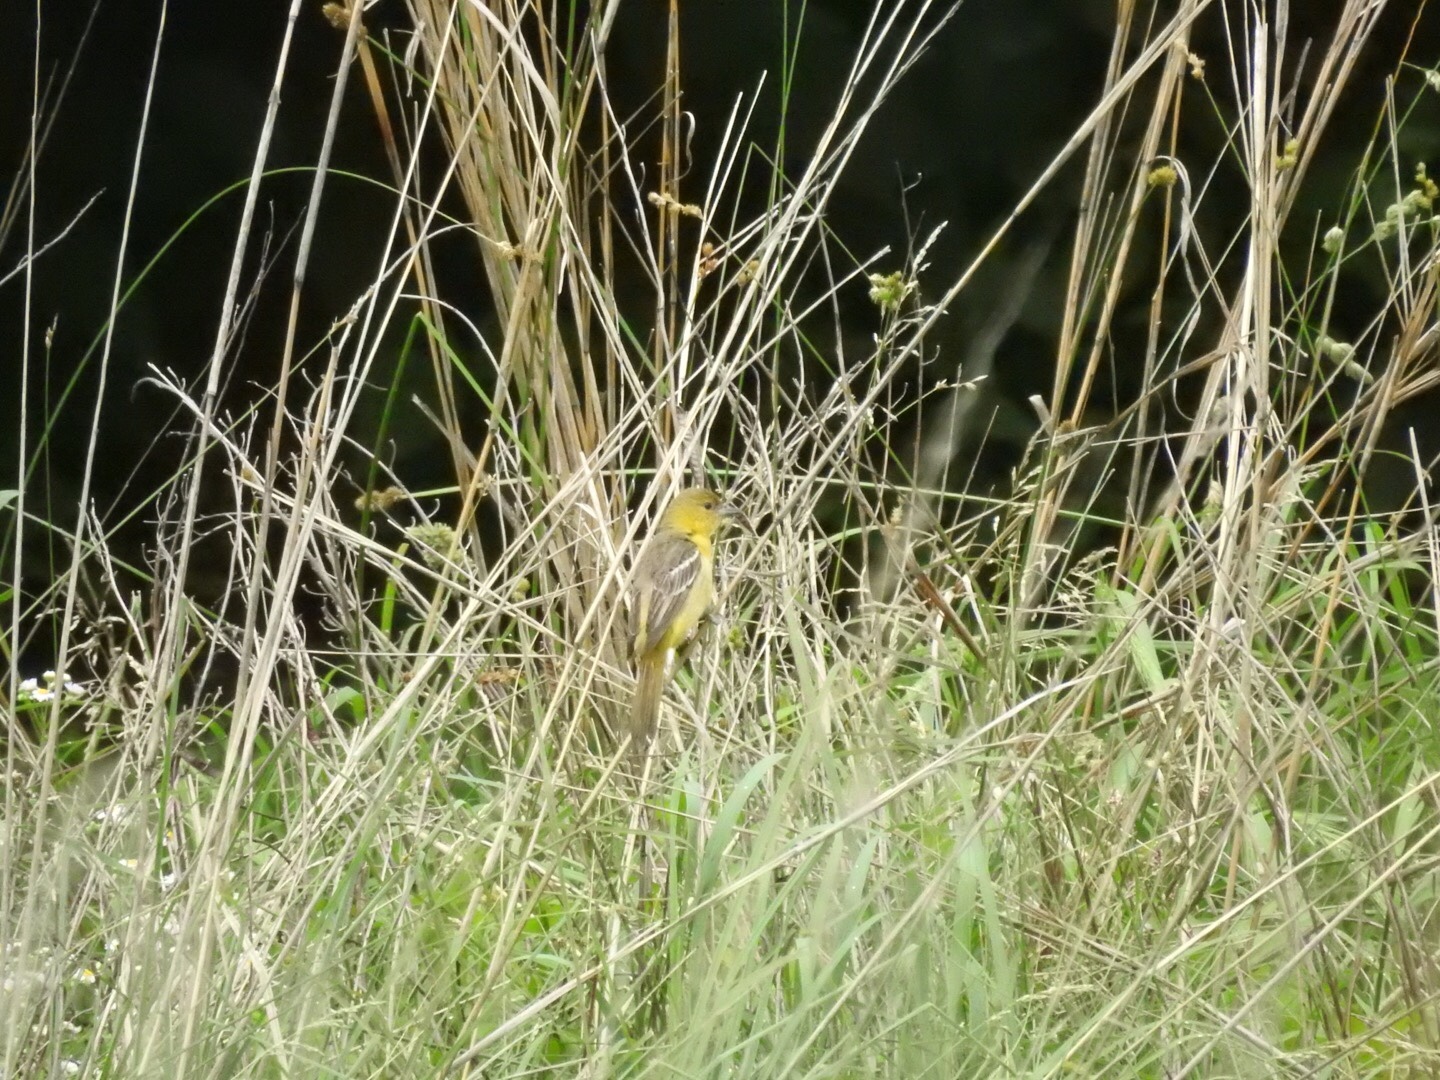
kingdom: Animalia
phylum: Chordata
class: Aves
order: Passeriformes
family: Icteridae
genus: Icterus
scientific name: Icterus galbula
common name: Baltimore oriole
